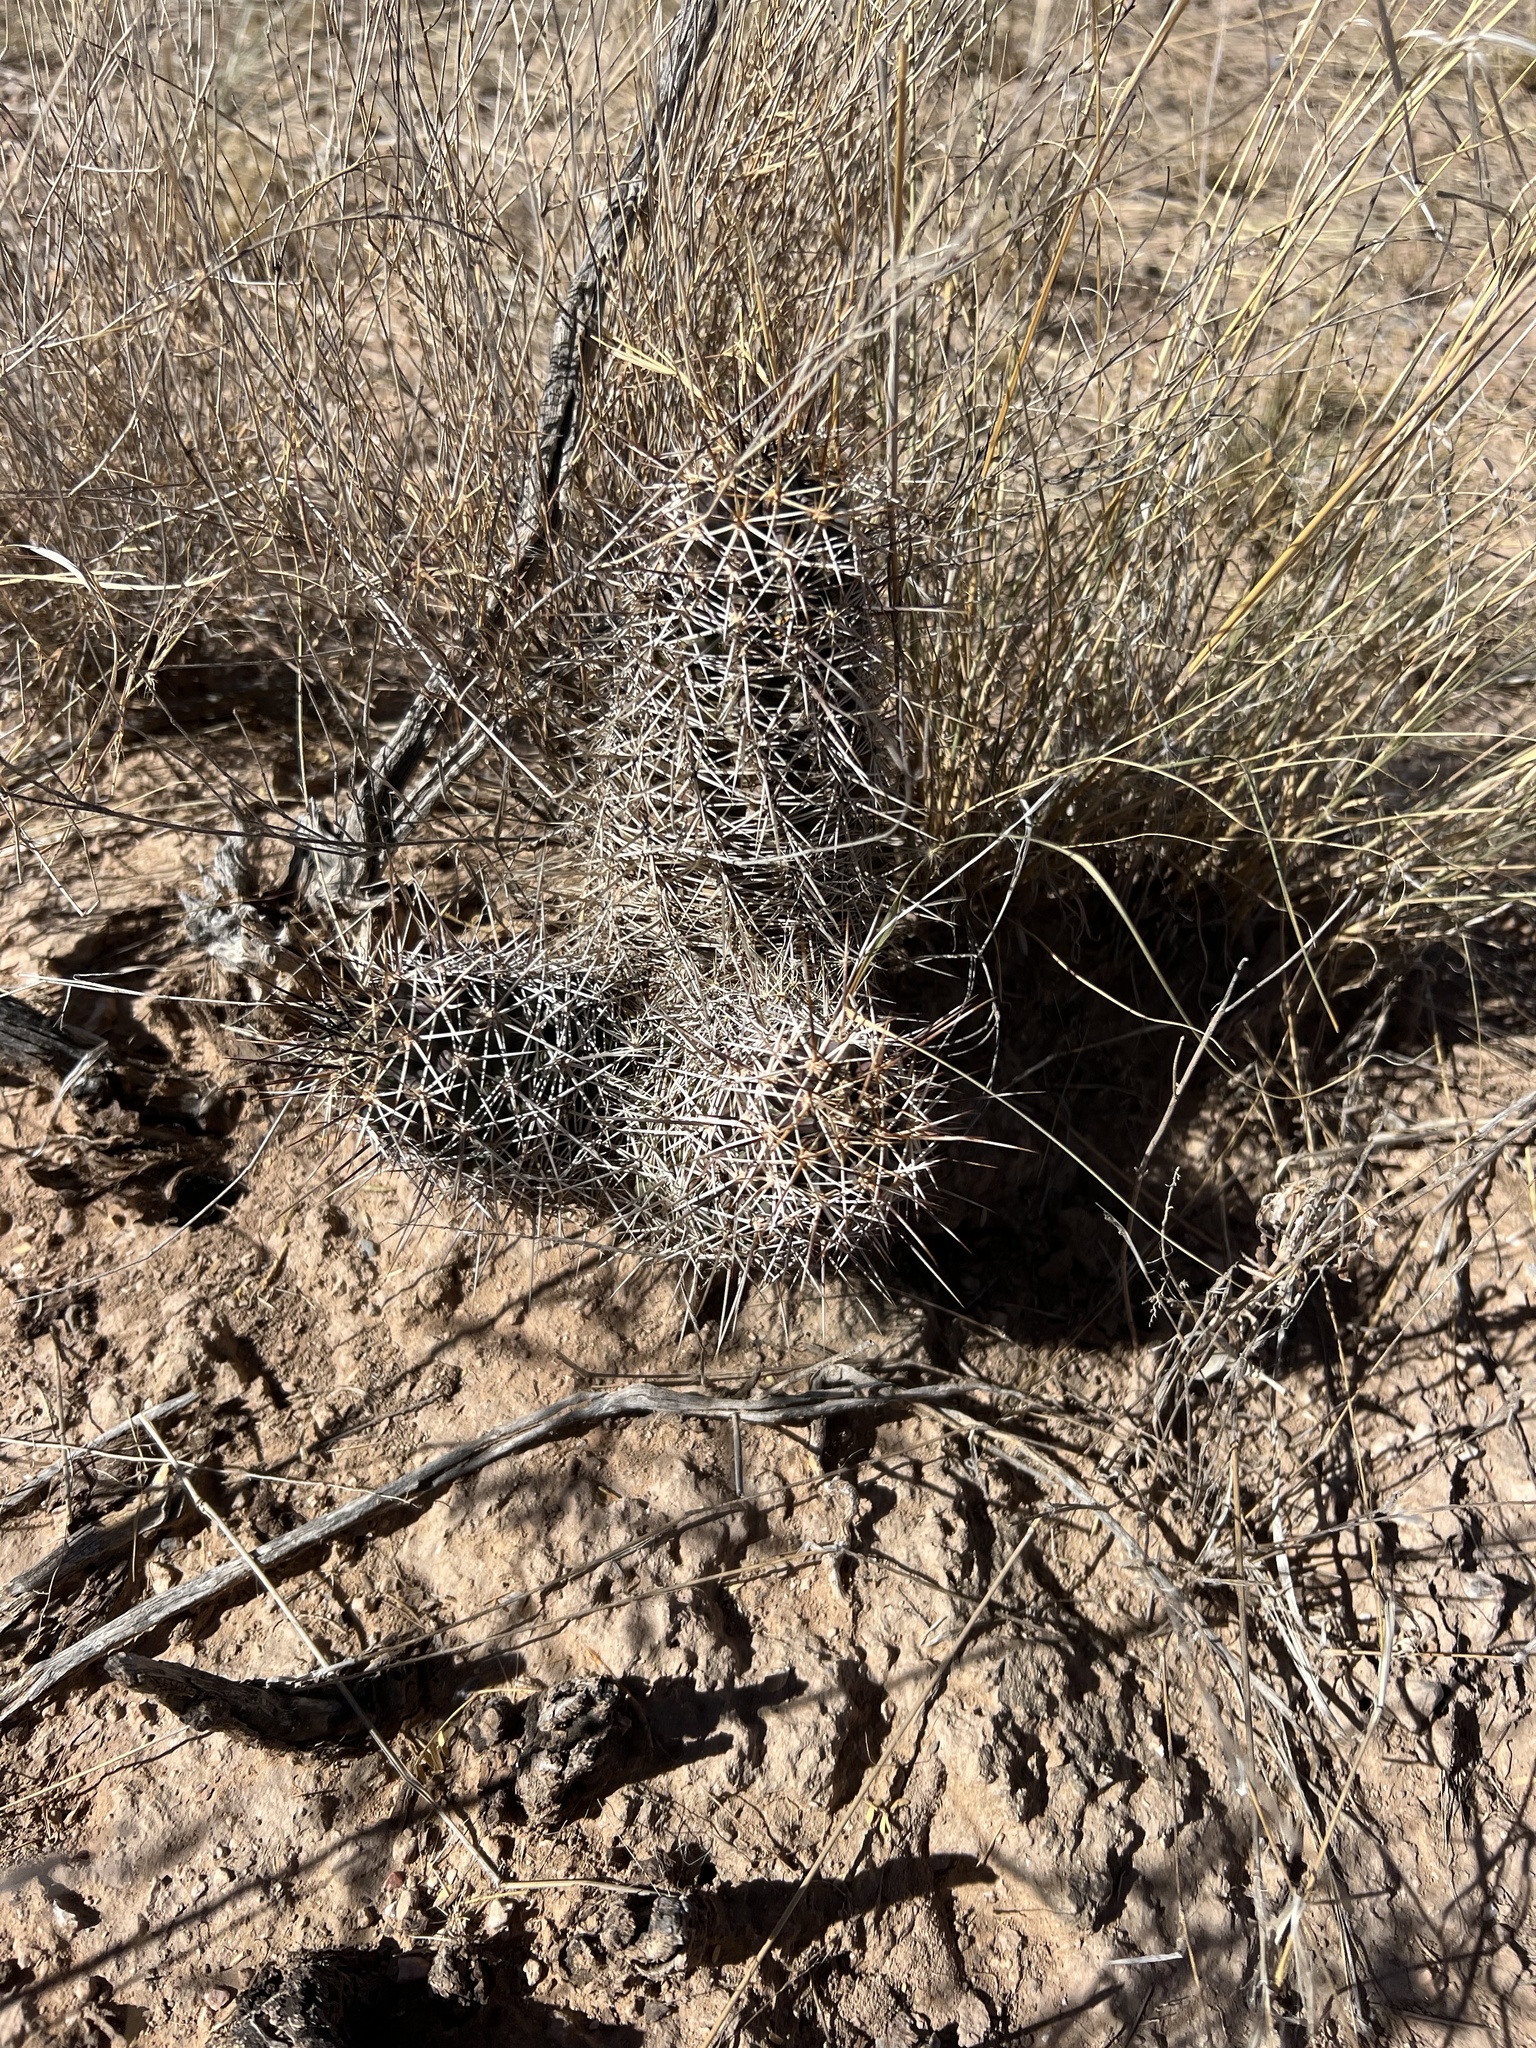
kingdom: Plantae
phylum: Tracheophyta
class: Magnoliopsida
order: Caryophyllales
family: Cactaceae
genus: Echinocereus
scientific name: Echinocereus fendleri
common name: Fendler's hedgehog cactus
